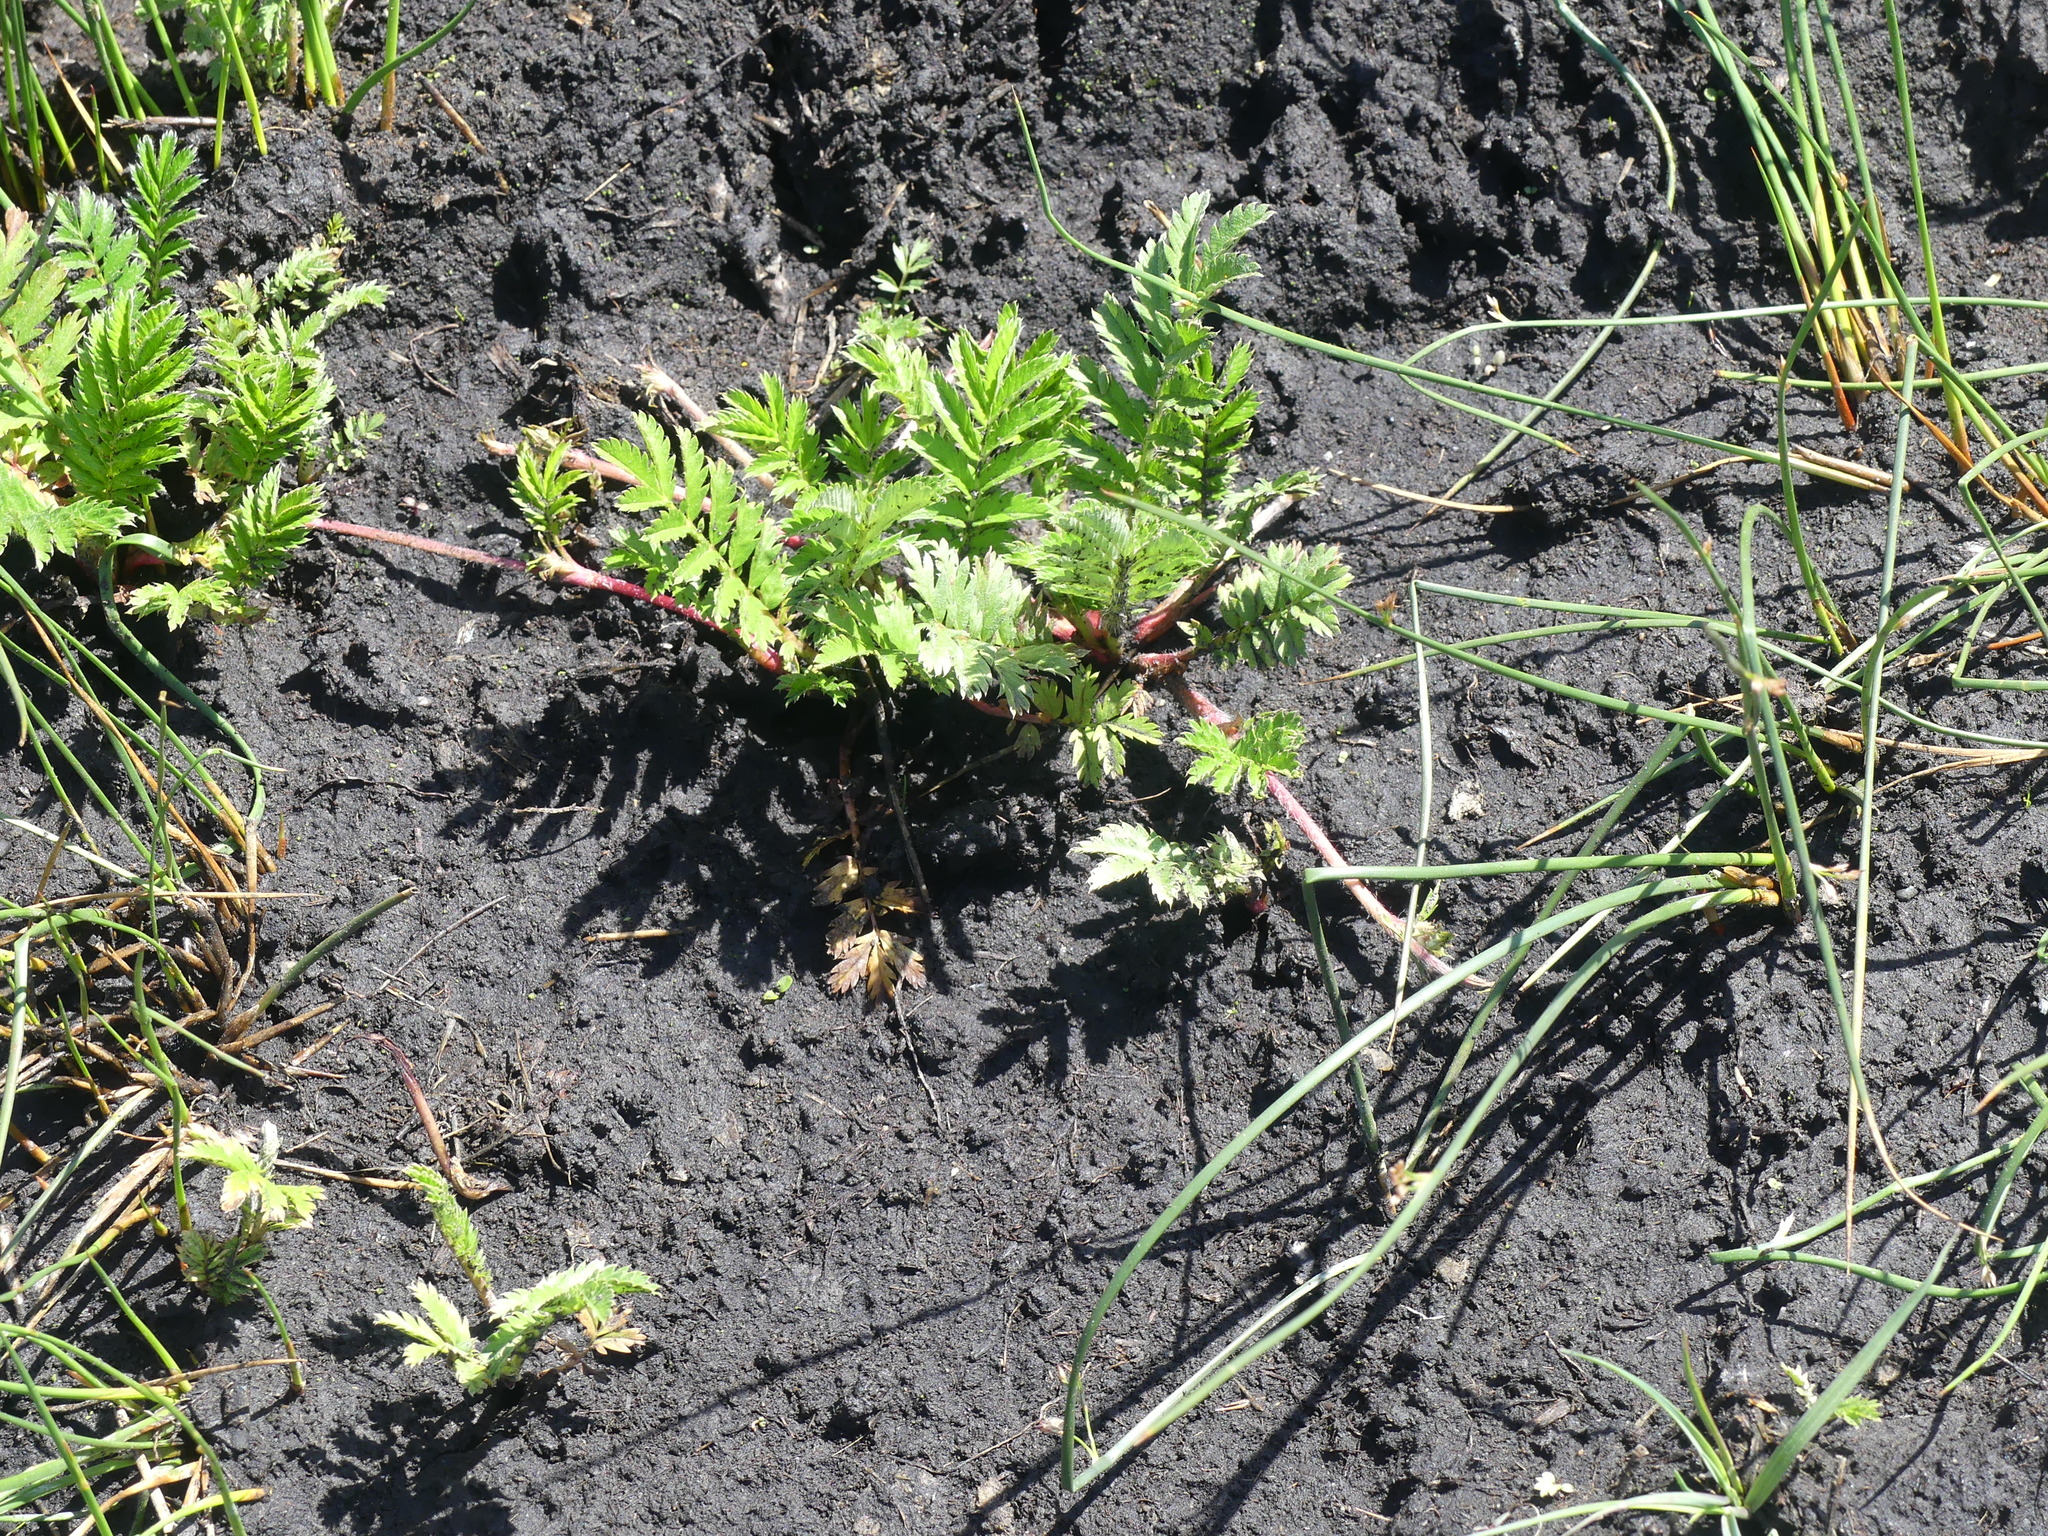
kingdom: Plantae
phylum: Tracheophyta
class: Magnoliopsida
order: Asterales
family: Asteraceae
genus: Tanacetum
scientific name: Tanacetum vulgare
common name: Common tansy
